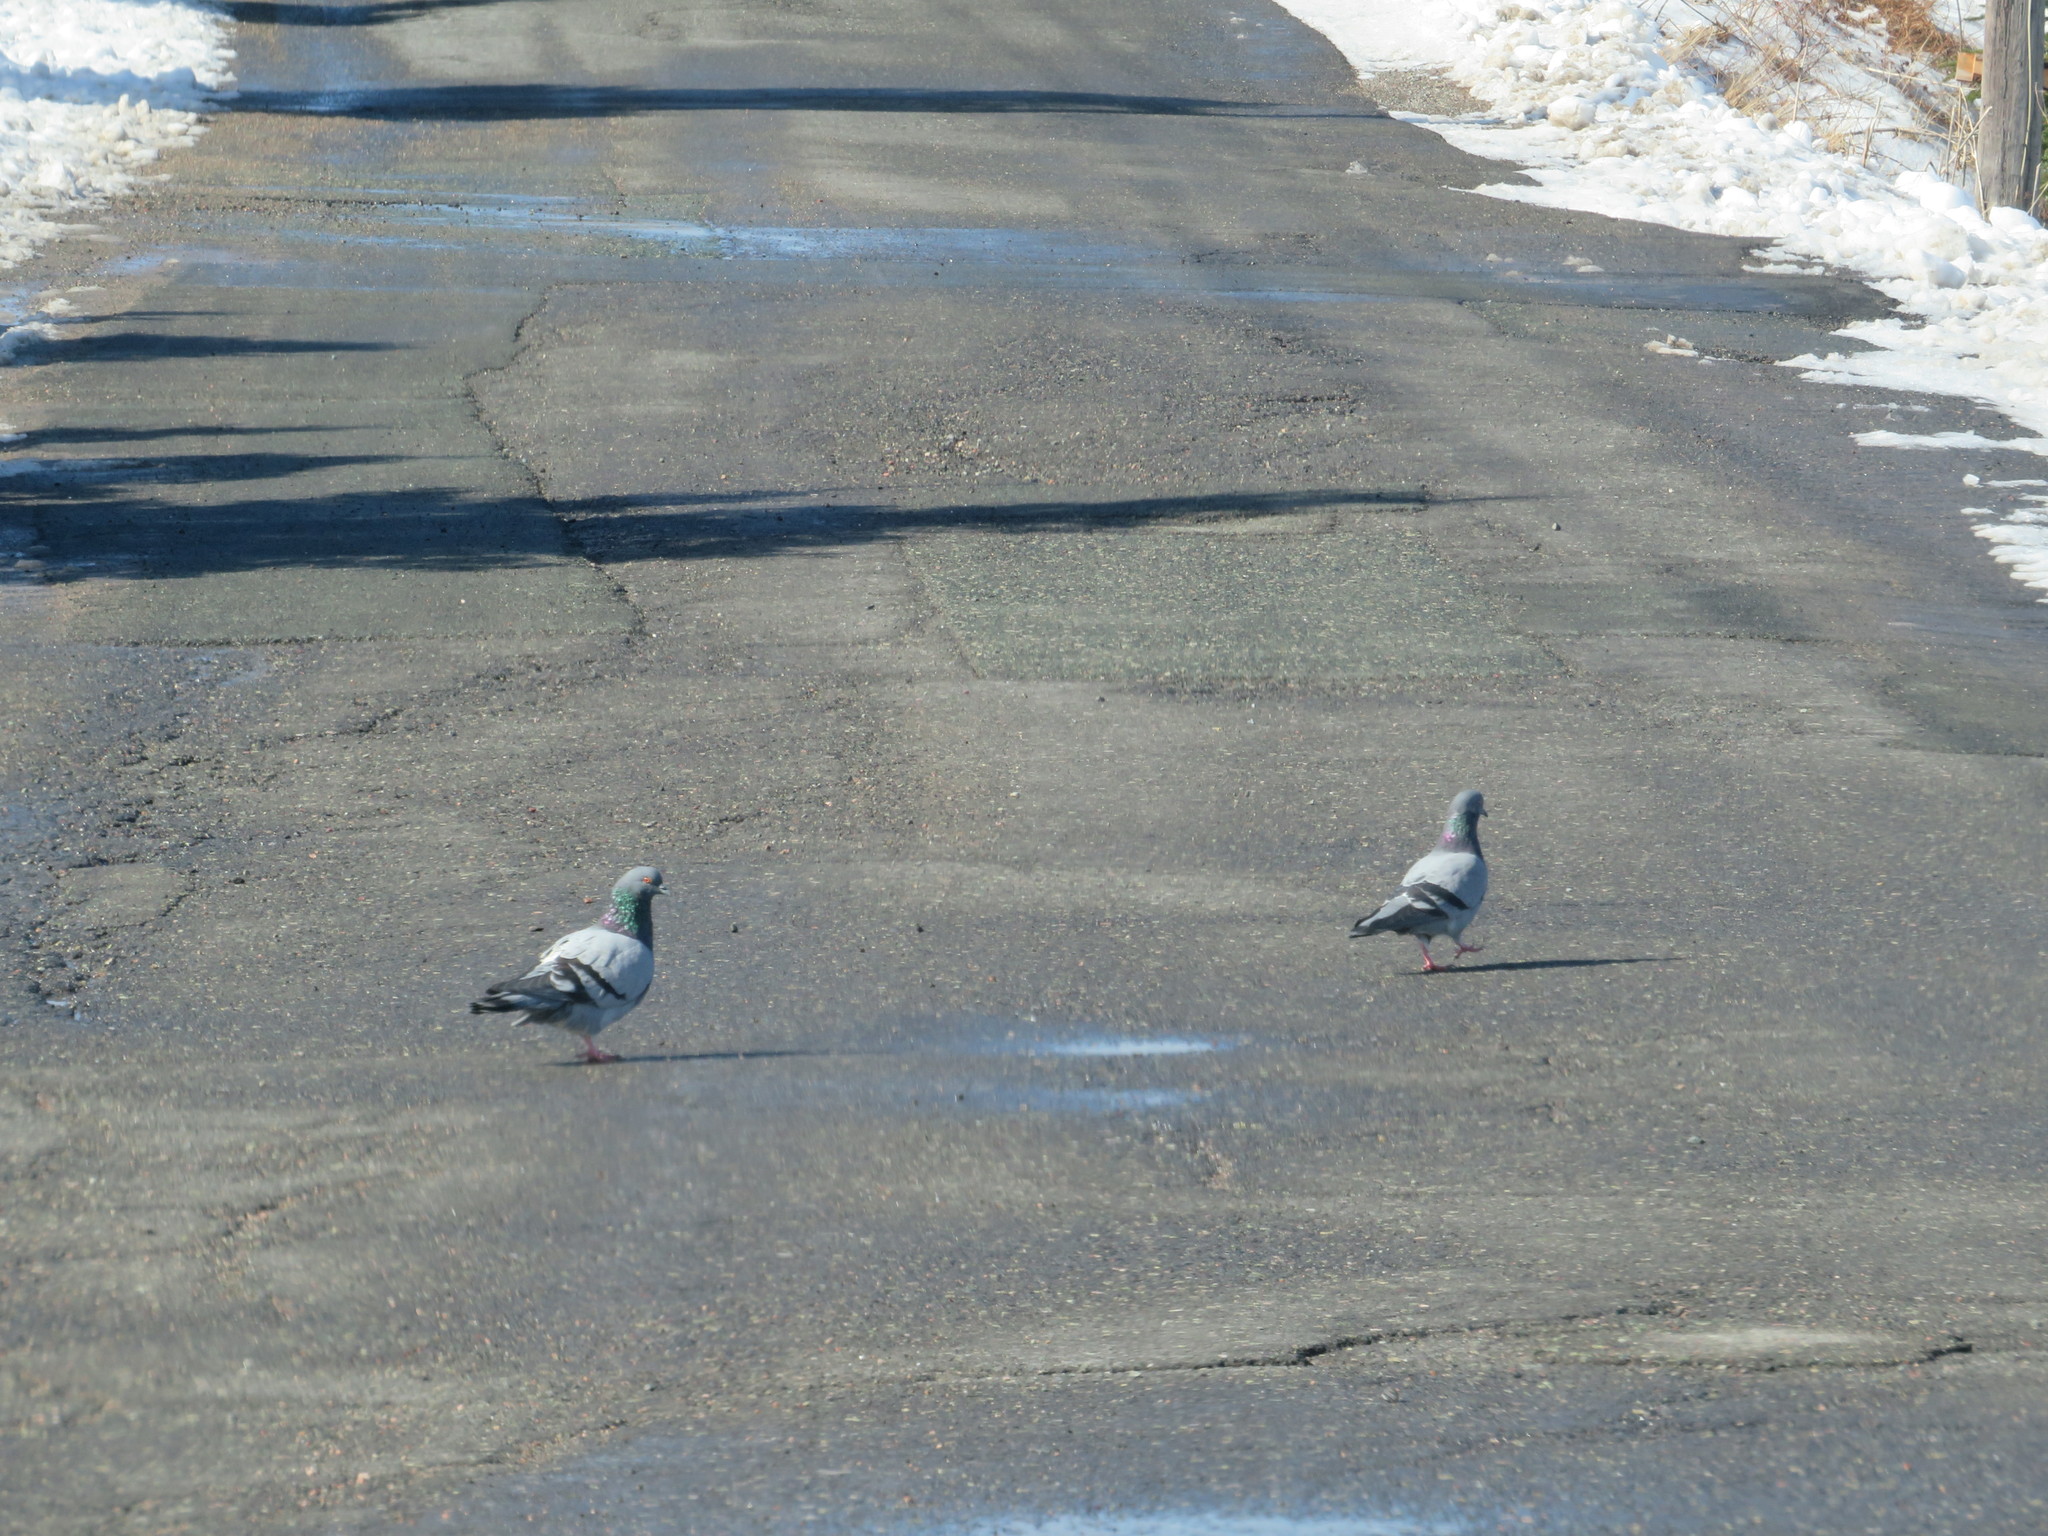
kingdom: Animalia
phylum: Chordata
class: Aves
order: Columbiformes
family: Columbidae
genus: Columba
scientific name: Columba livia
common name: Rock pigeon
